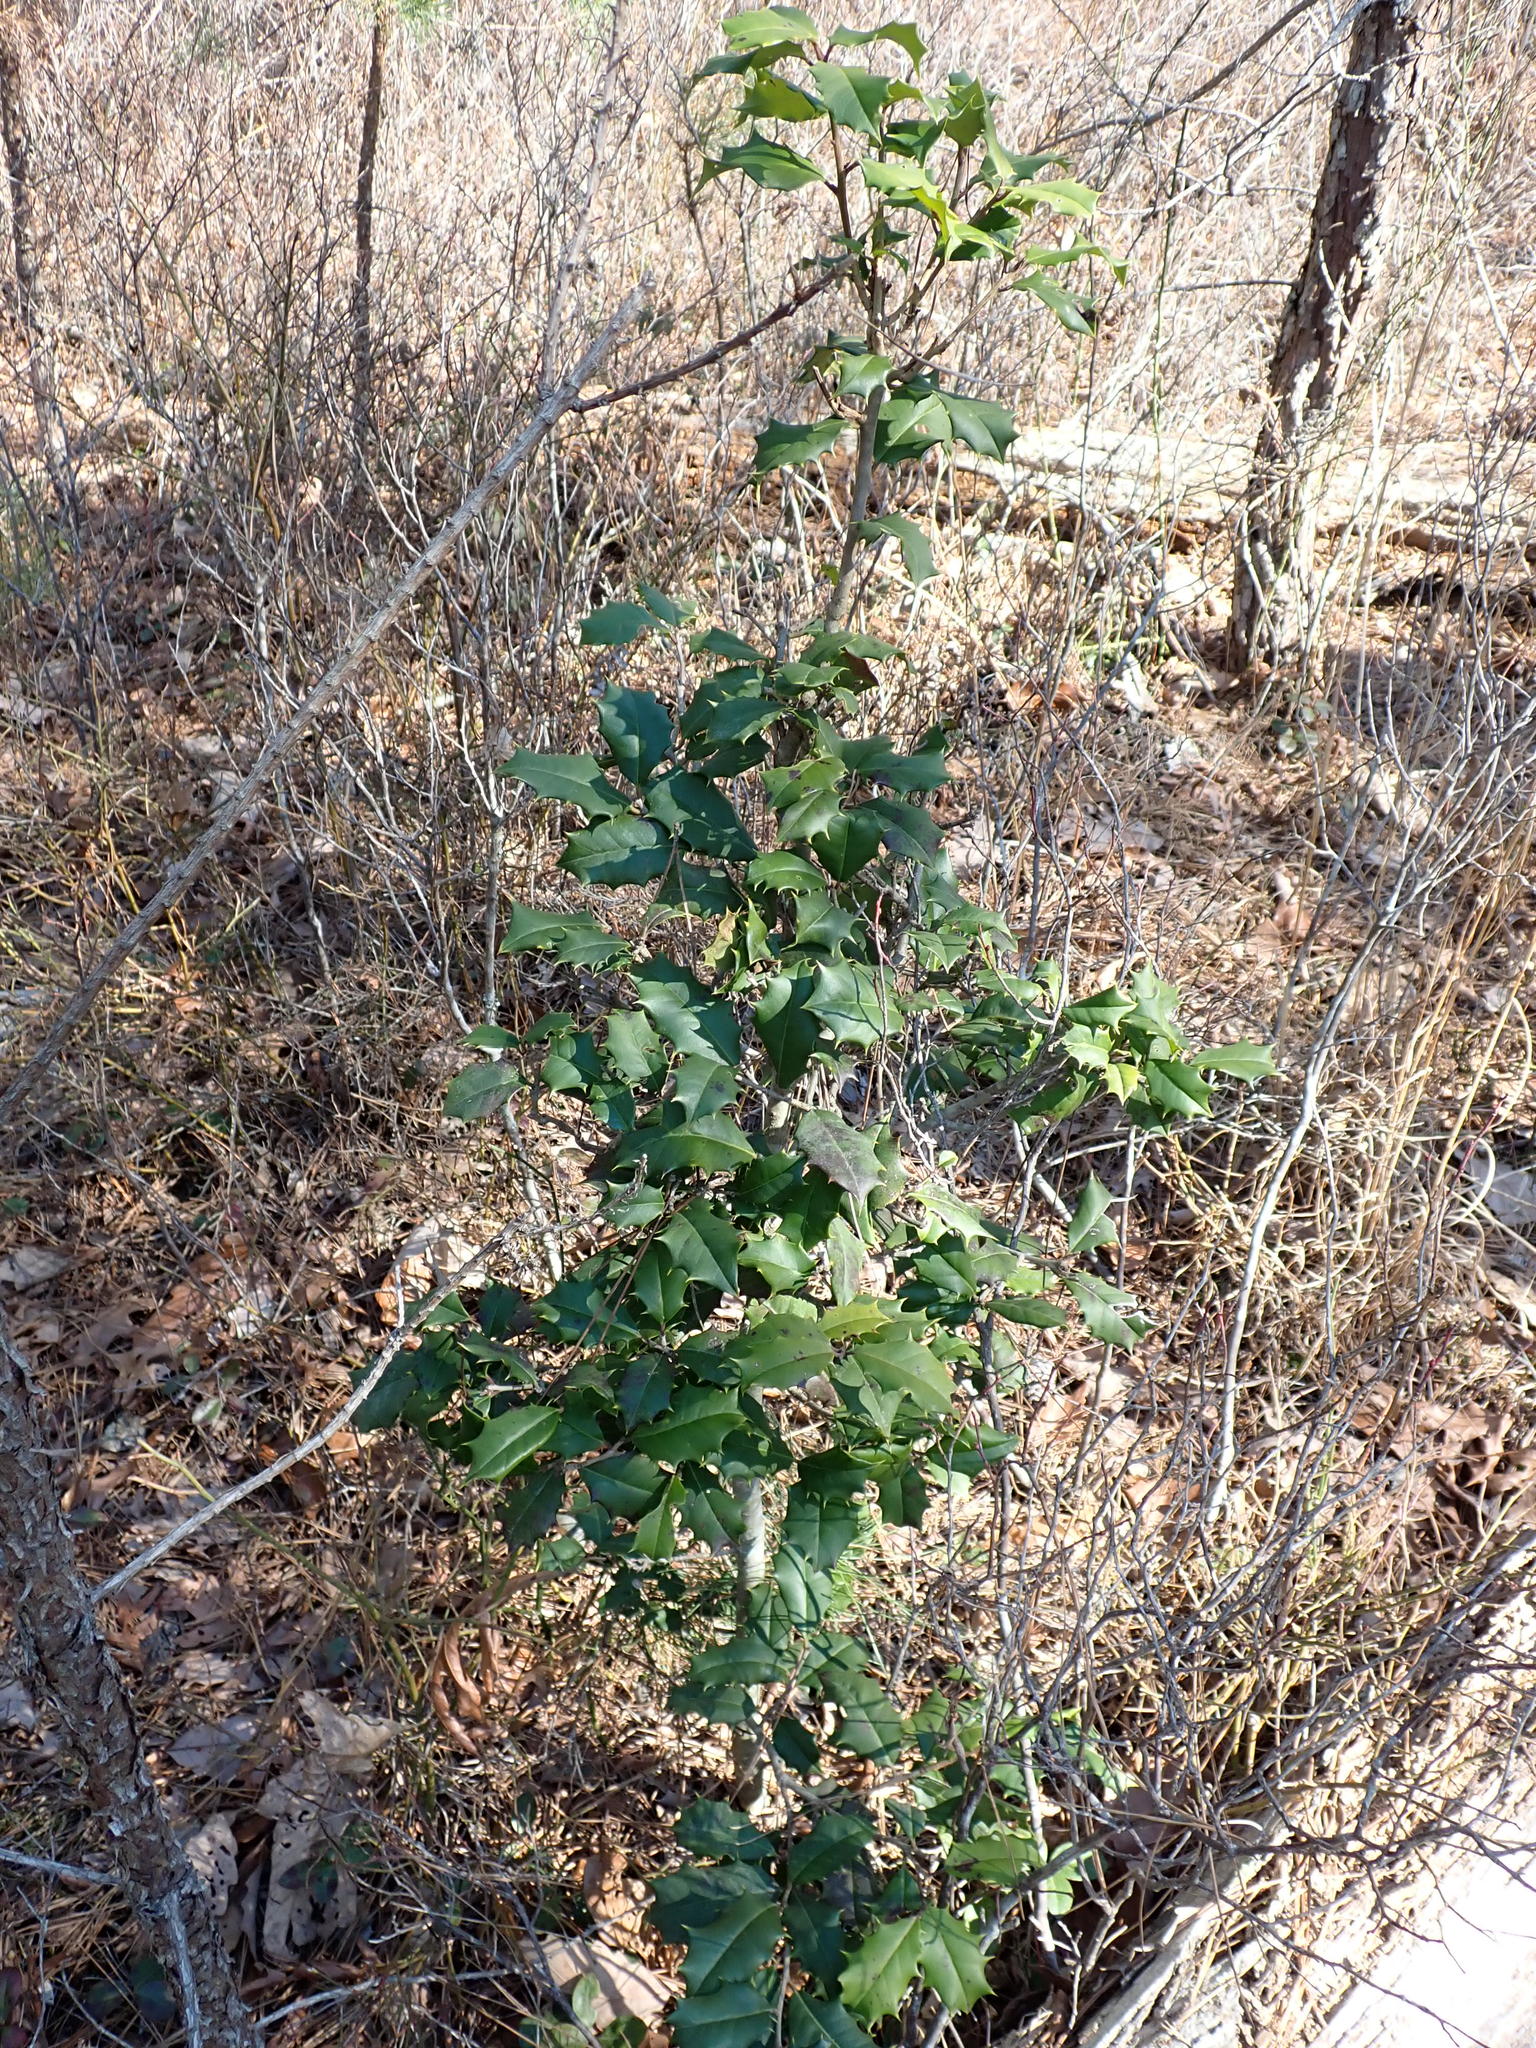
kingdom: Plantae
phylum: Tracheophyta
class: Magnoliopsida
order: Aquifoliales
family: Aquifoliaceae
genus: Ilex
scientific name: Ilex opaca
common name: American holly
